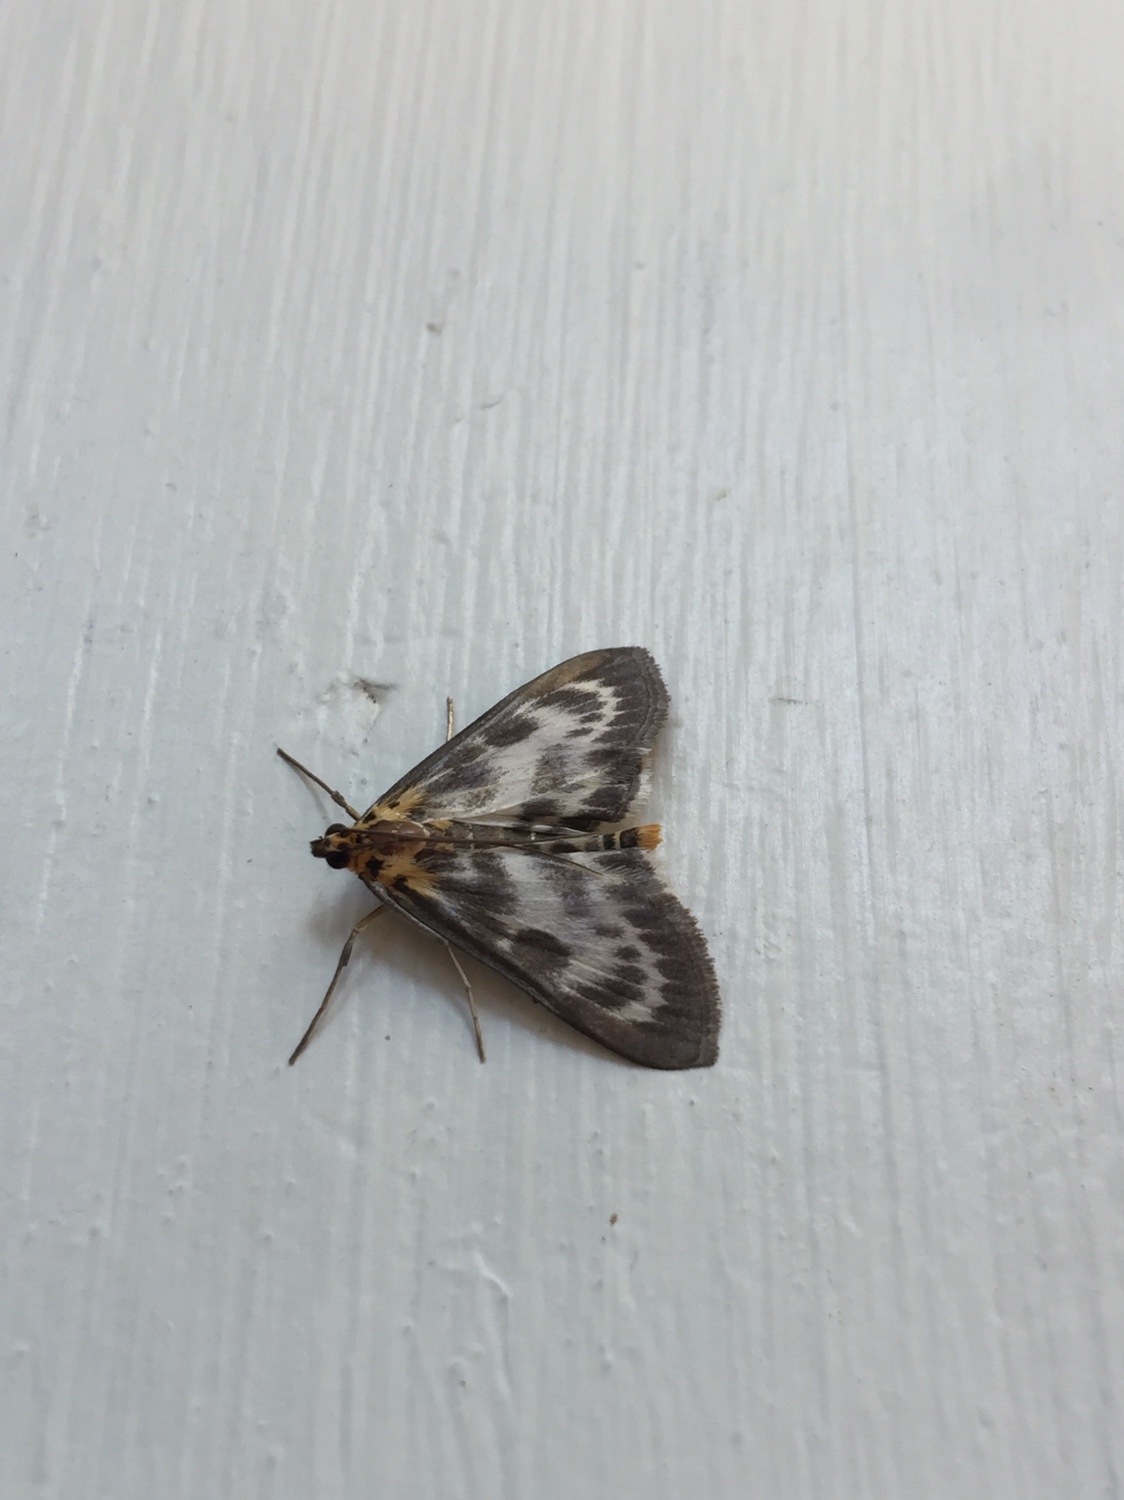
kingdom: Animalia
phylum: Arthropoda
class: Insecta
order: Lepidoptera
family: Crambidae
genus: Anania
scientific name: Anania hortulata
